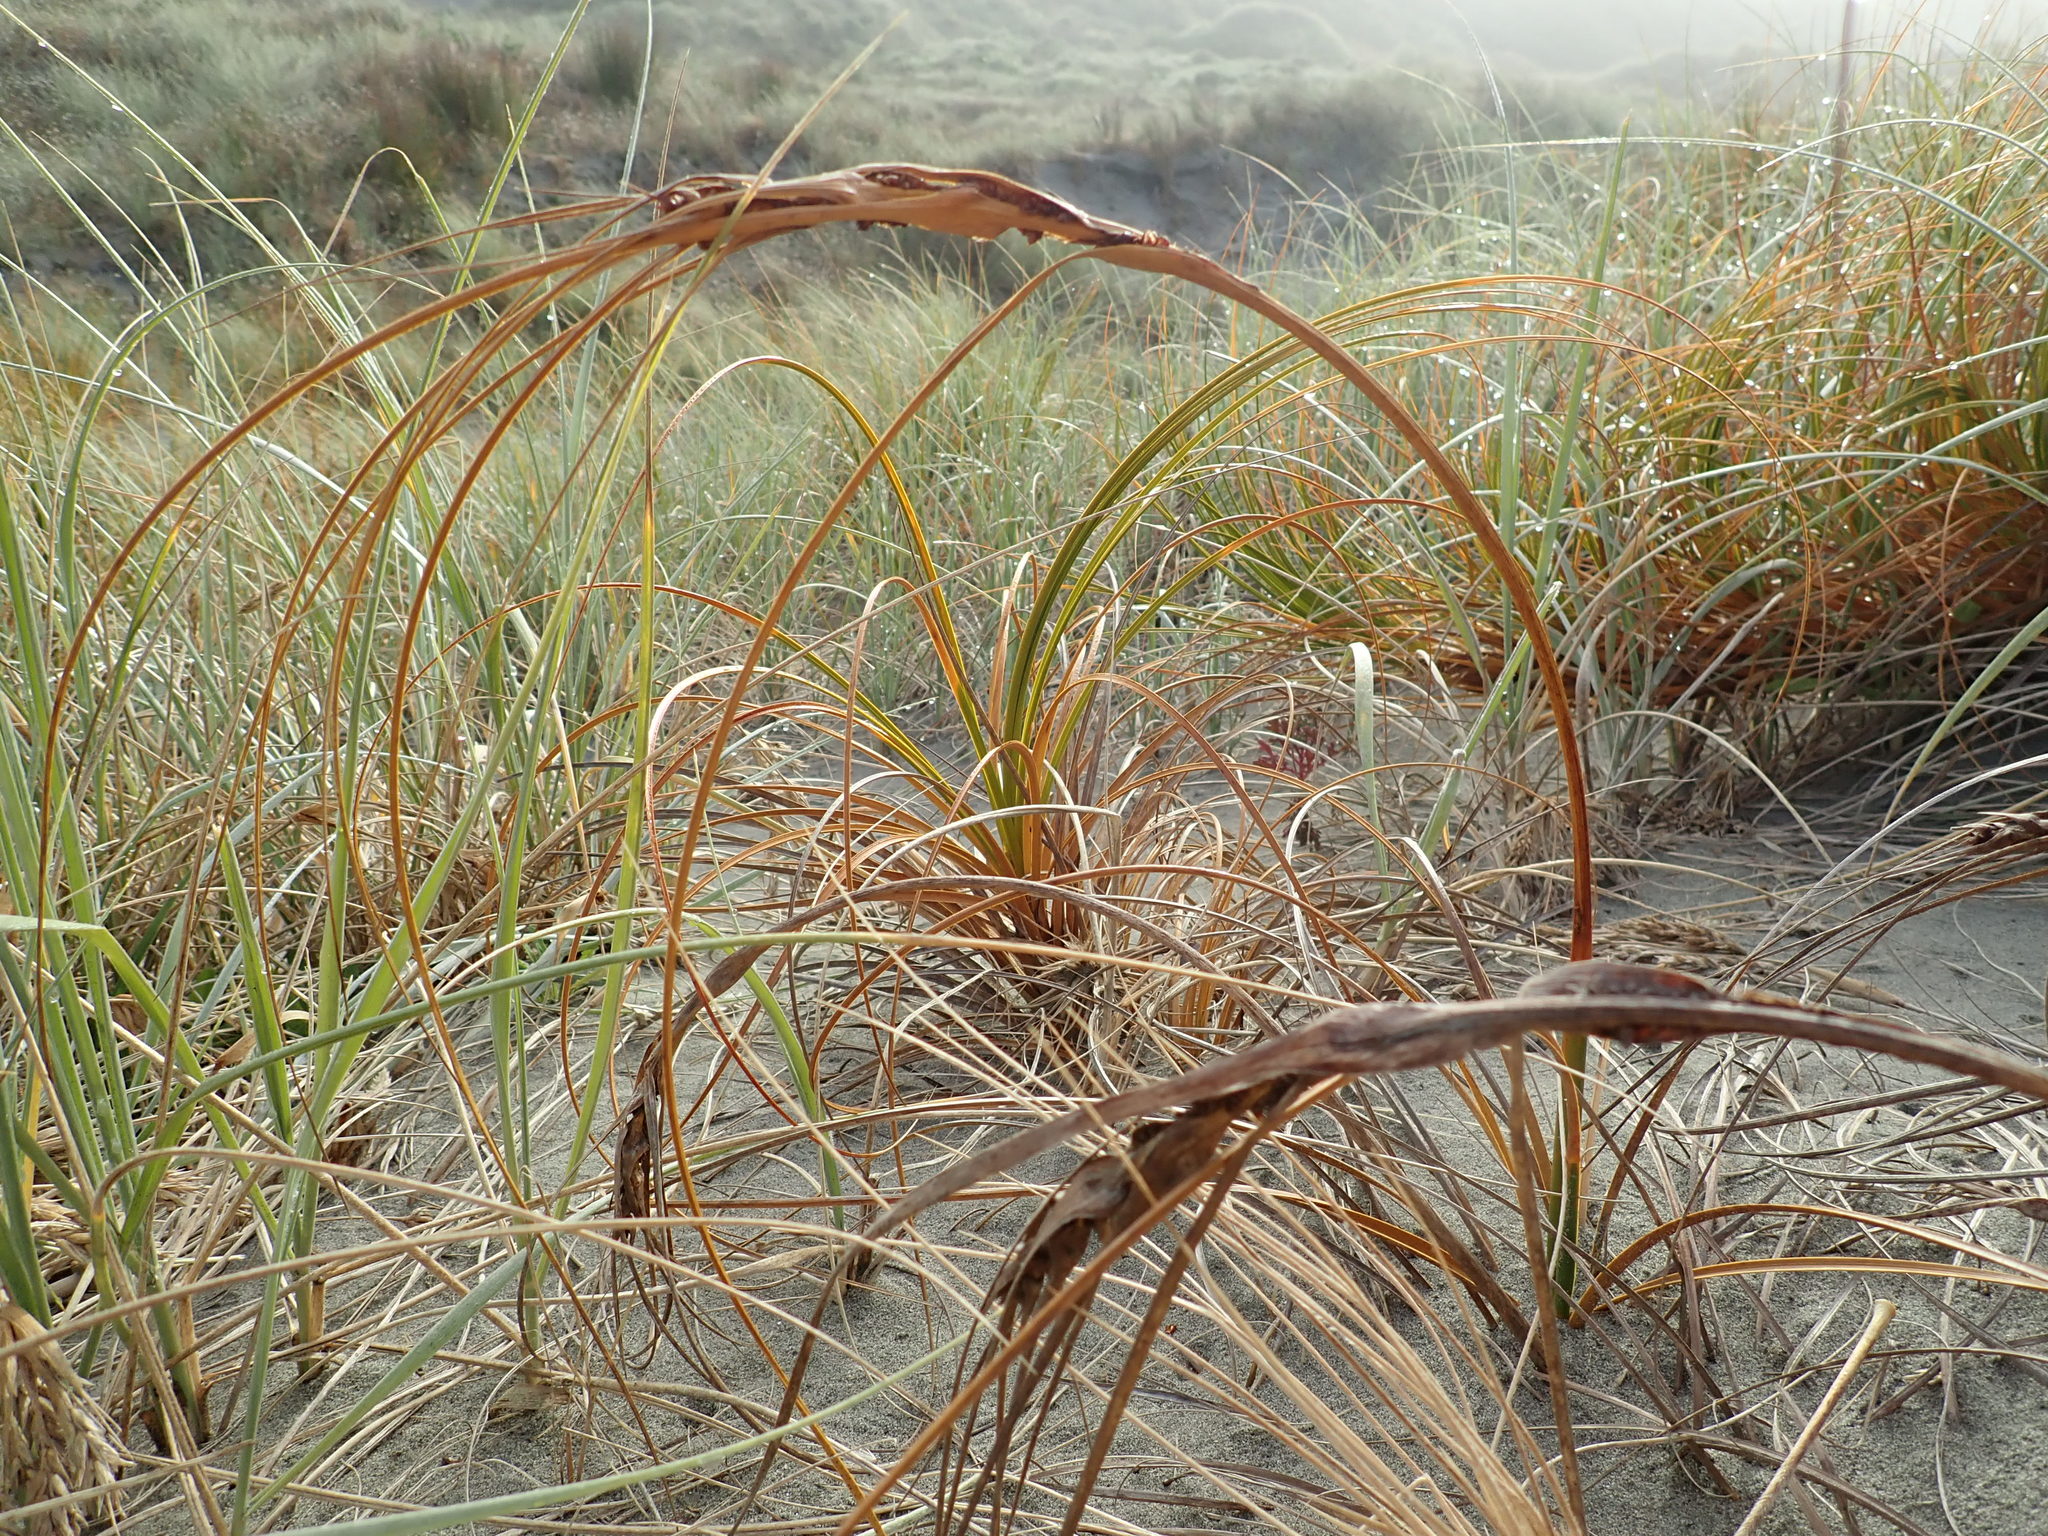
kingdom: Plantae
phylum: Tracheophyta
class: Liliopsida
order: Poales
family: Cyperaceae
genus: Ficinia
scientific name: Ficinia spiralis
